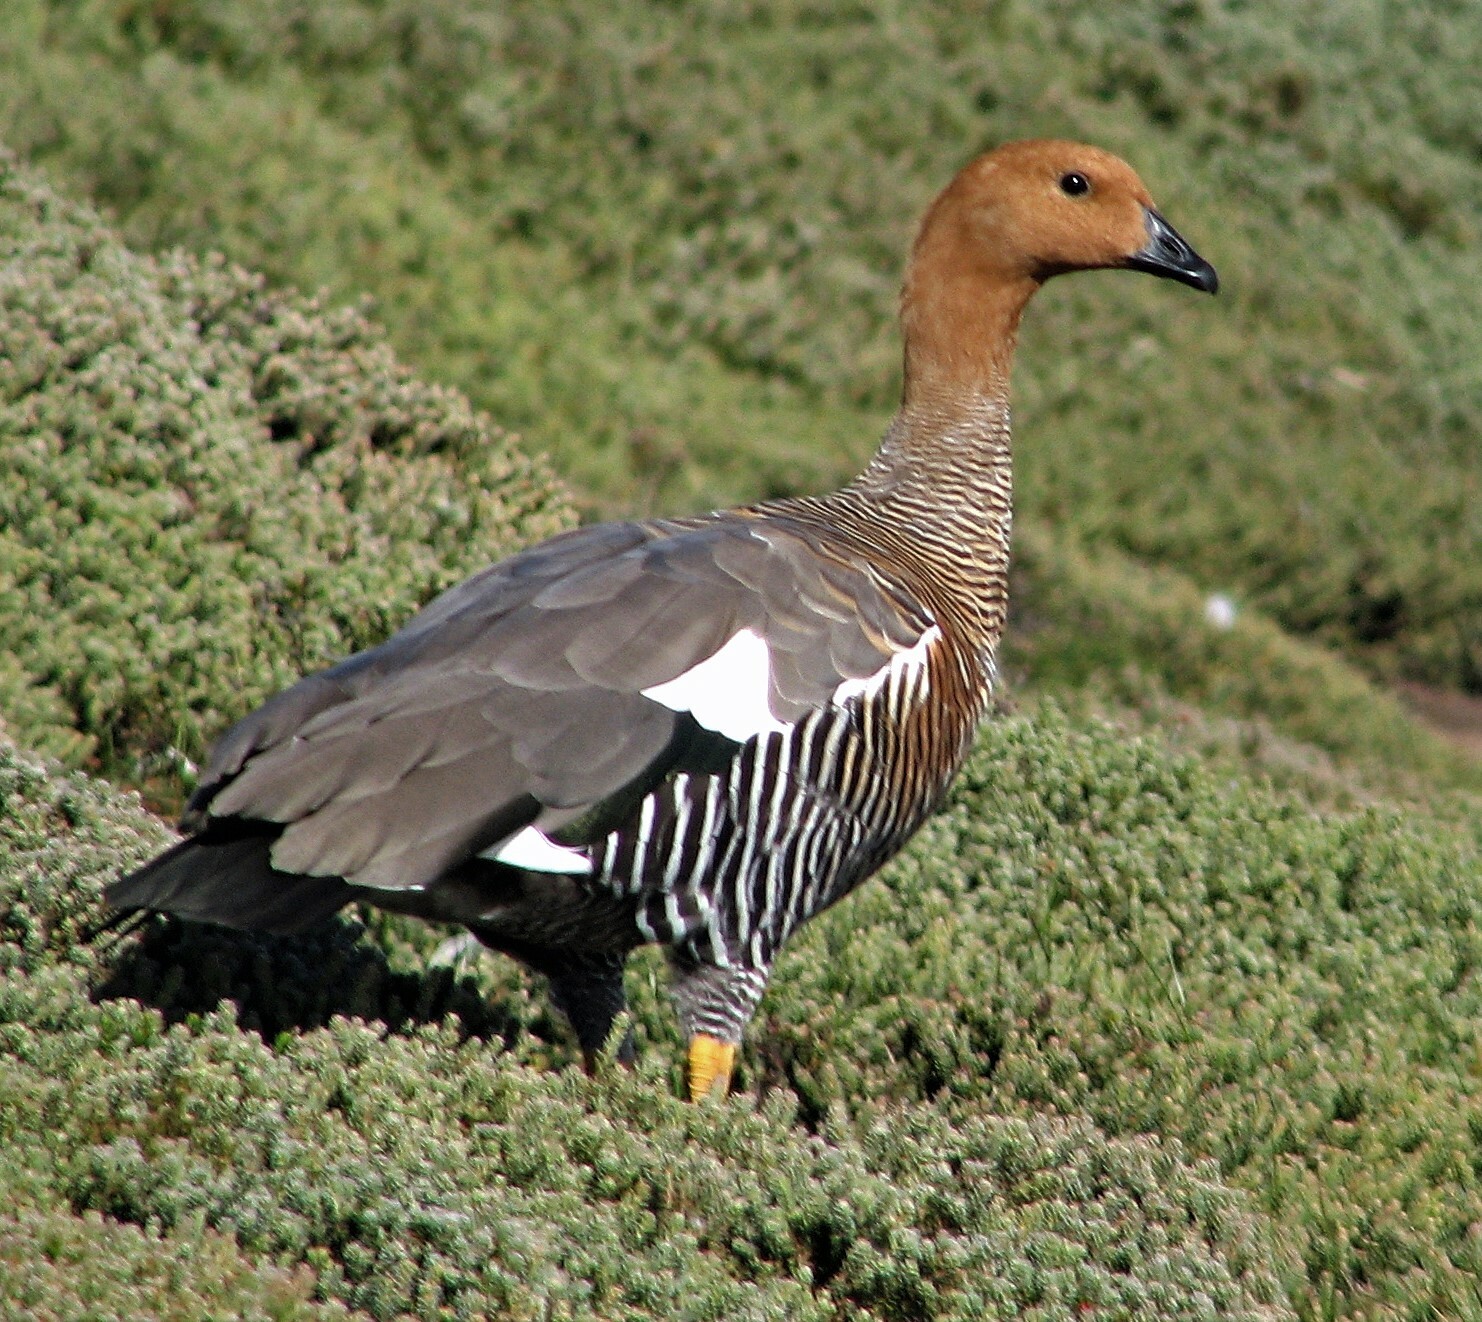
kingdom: Animalia
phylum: Chordata
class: Aves
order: Anseriformes
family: Anatidae
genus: Chloephaga
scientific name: Chloephaga picta
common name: Upland goose
